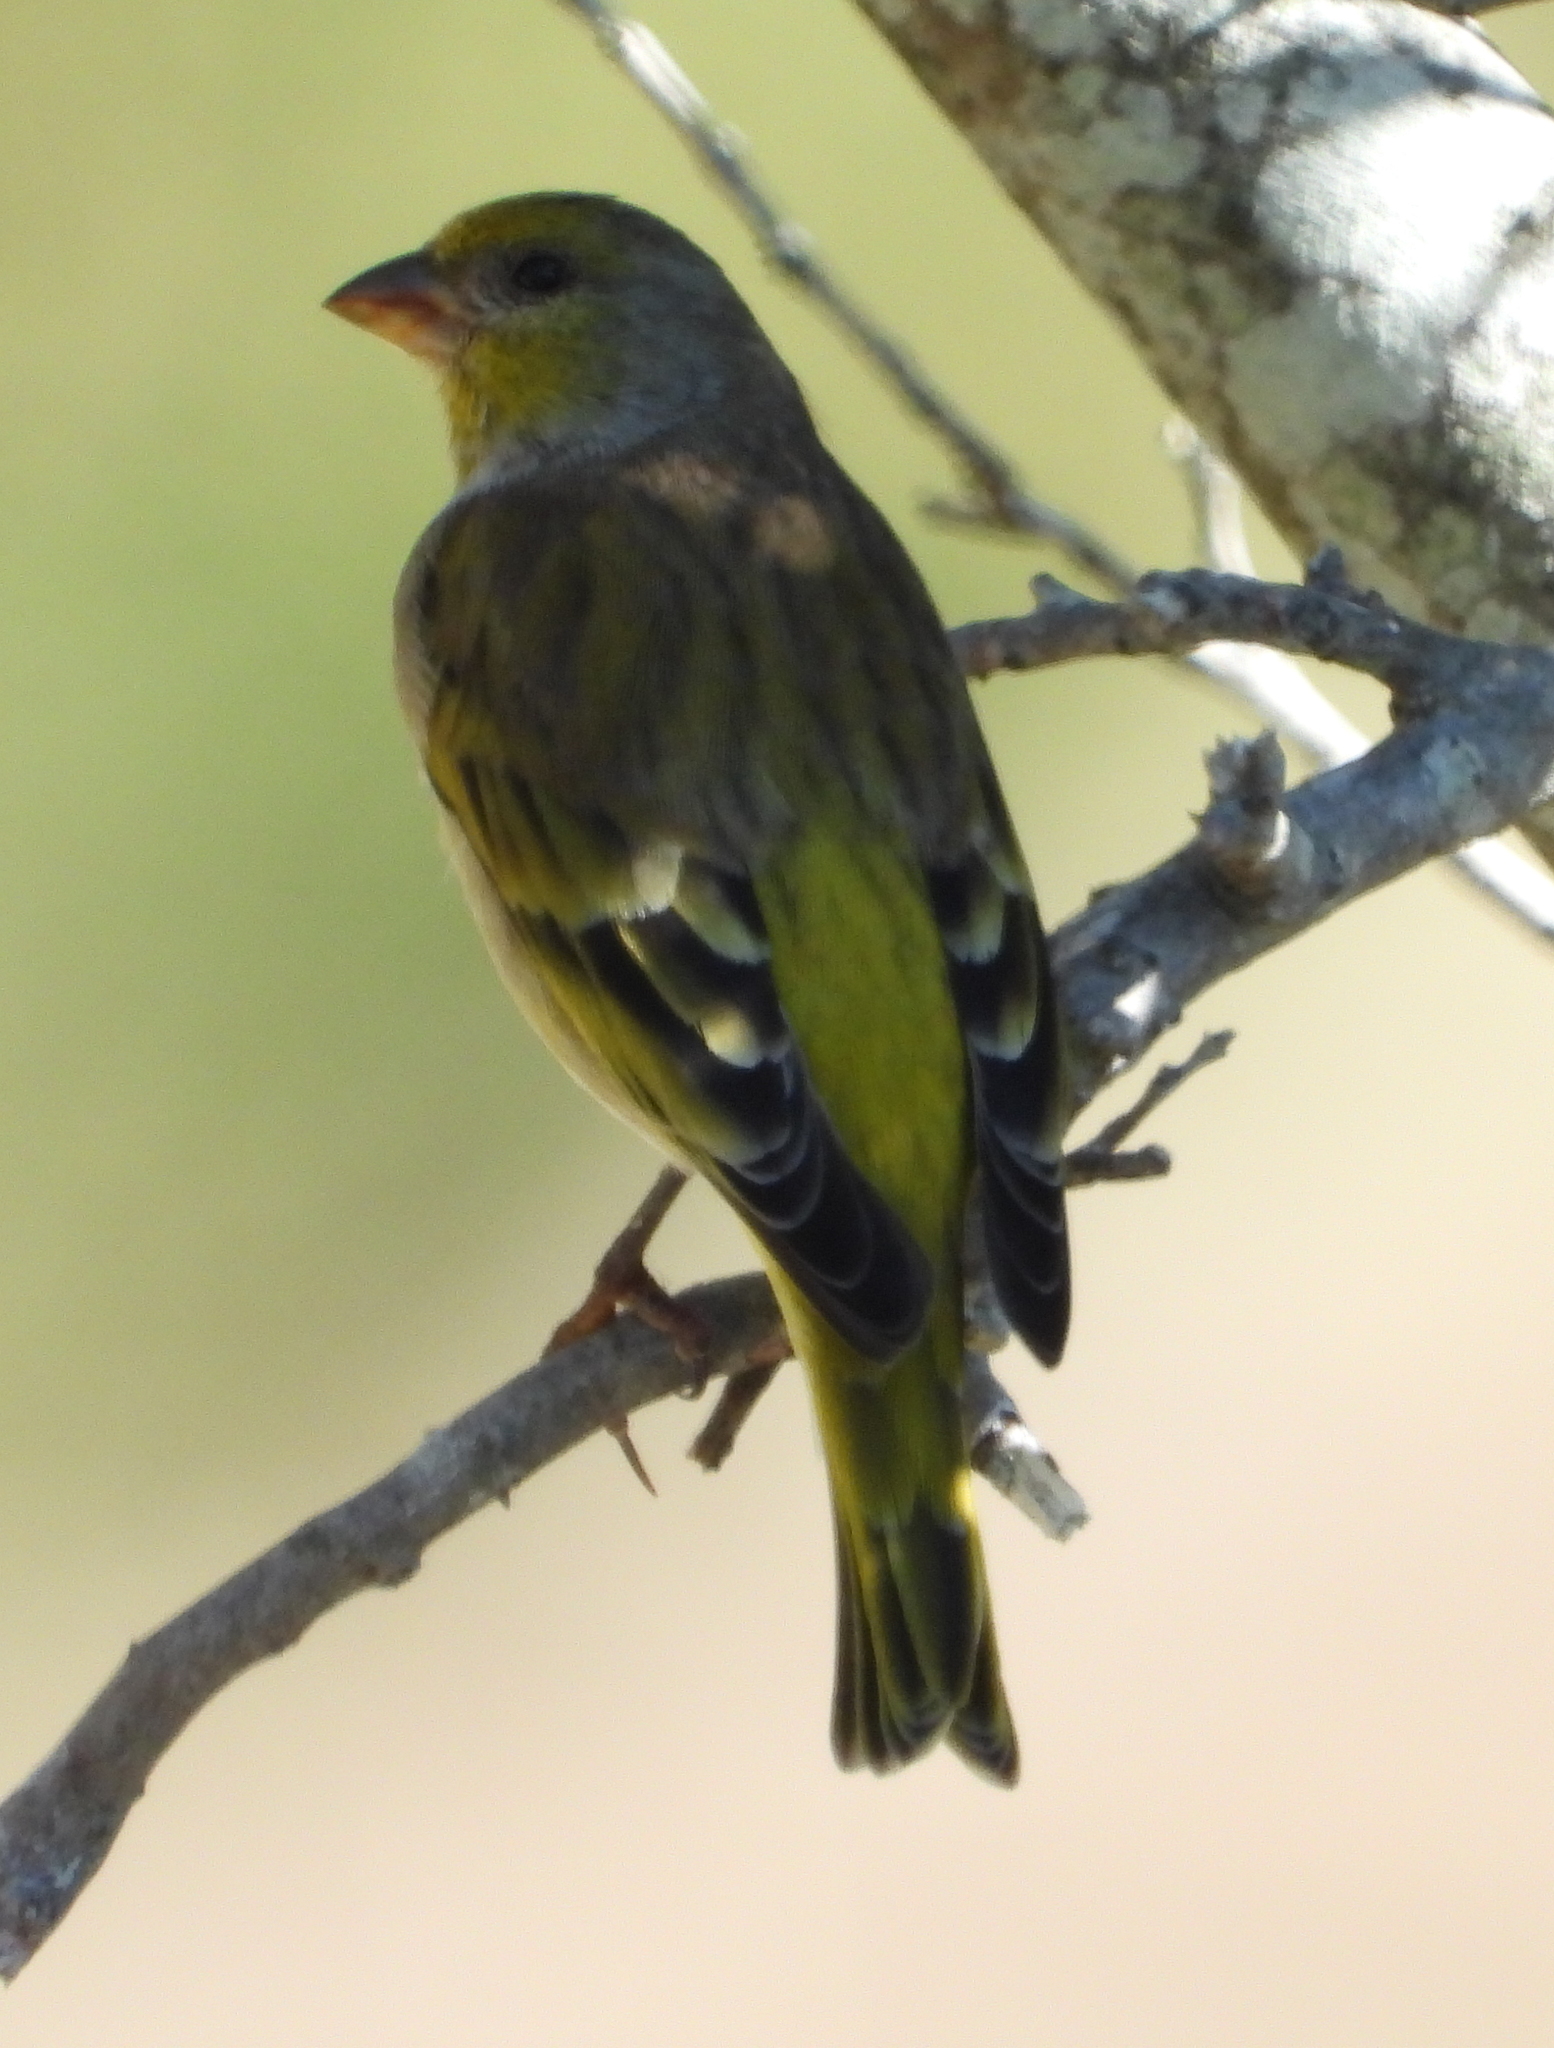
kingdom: Animalia
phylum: Chordata
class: Aves
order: Passeriformes
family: Fringillidae
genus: Serinus
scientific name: Serinus canicollis
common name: Cape canary
